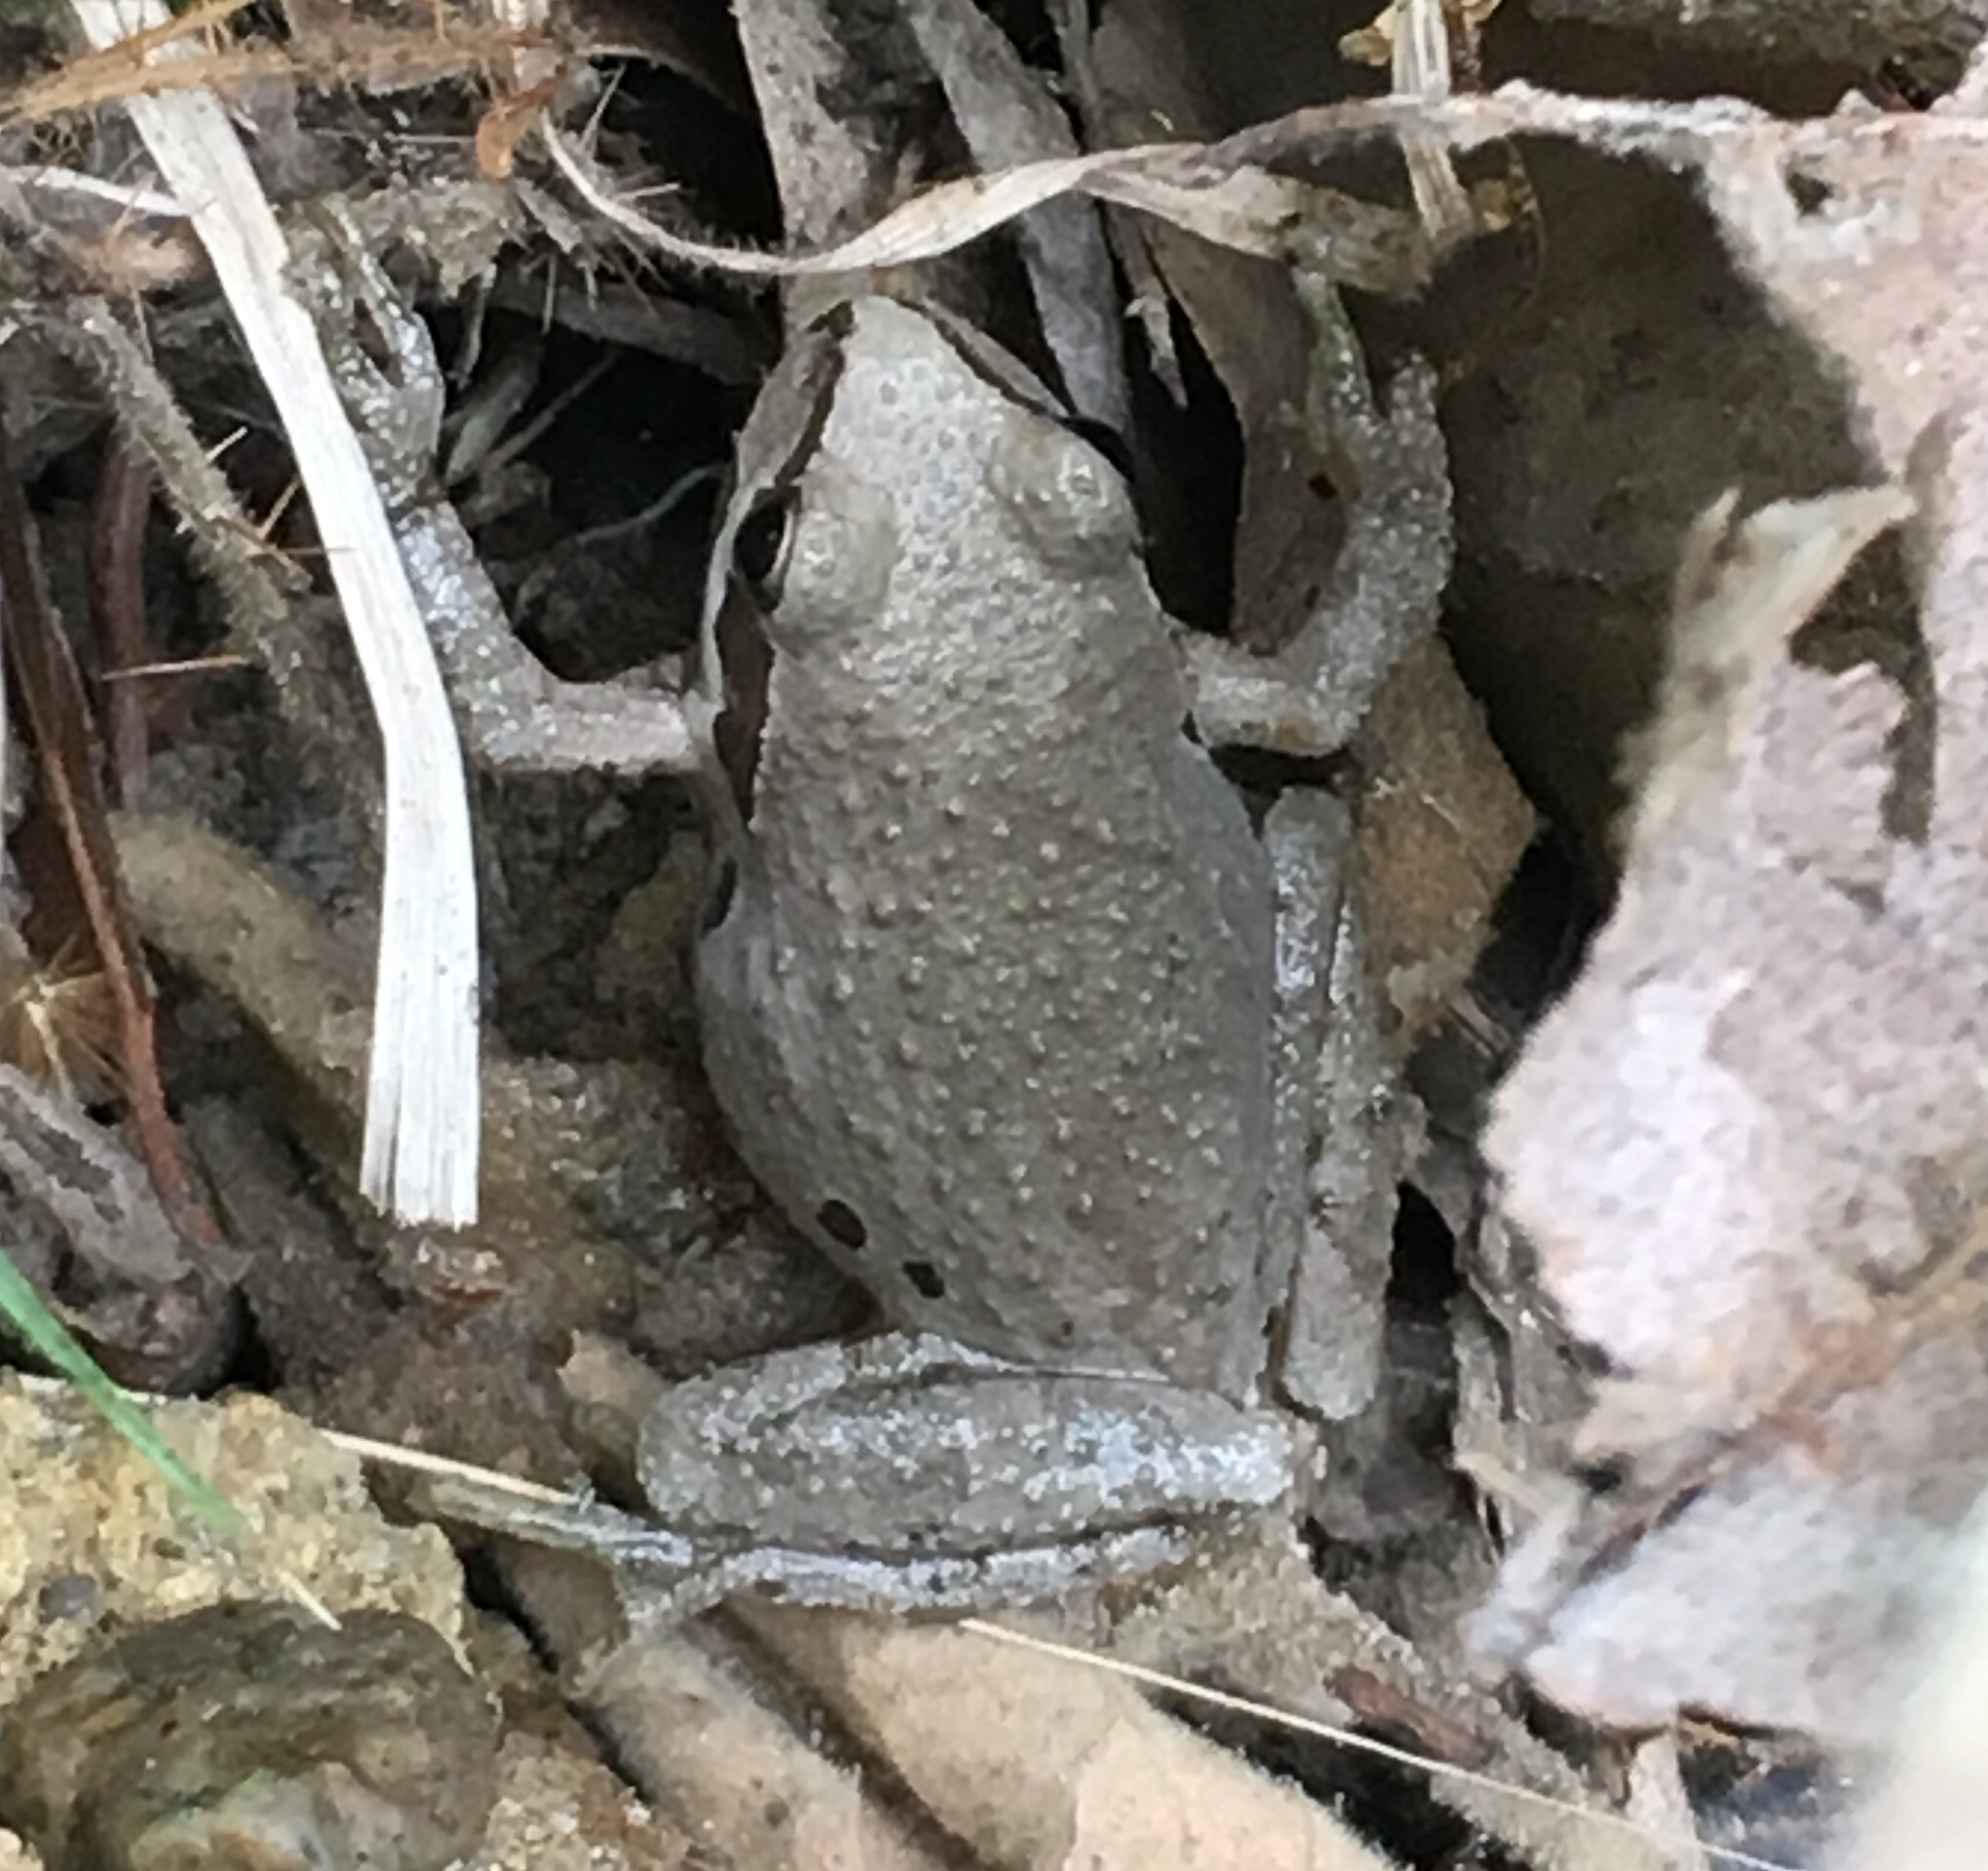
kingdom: Animalia
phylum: Chordata
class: Amphibia
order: Anura
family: Hylidae
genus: Pseudacris
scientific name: Pseudacris regilla
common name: Pacific chorus frog
